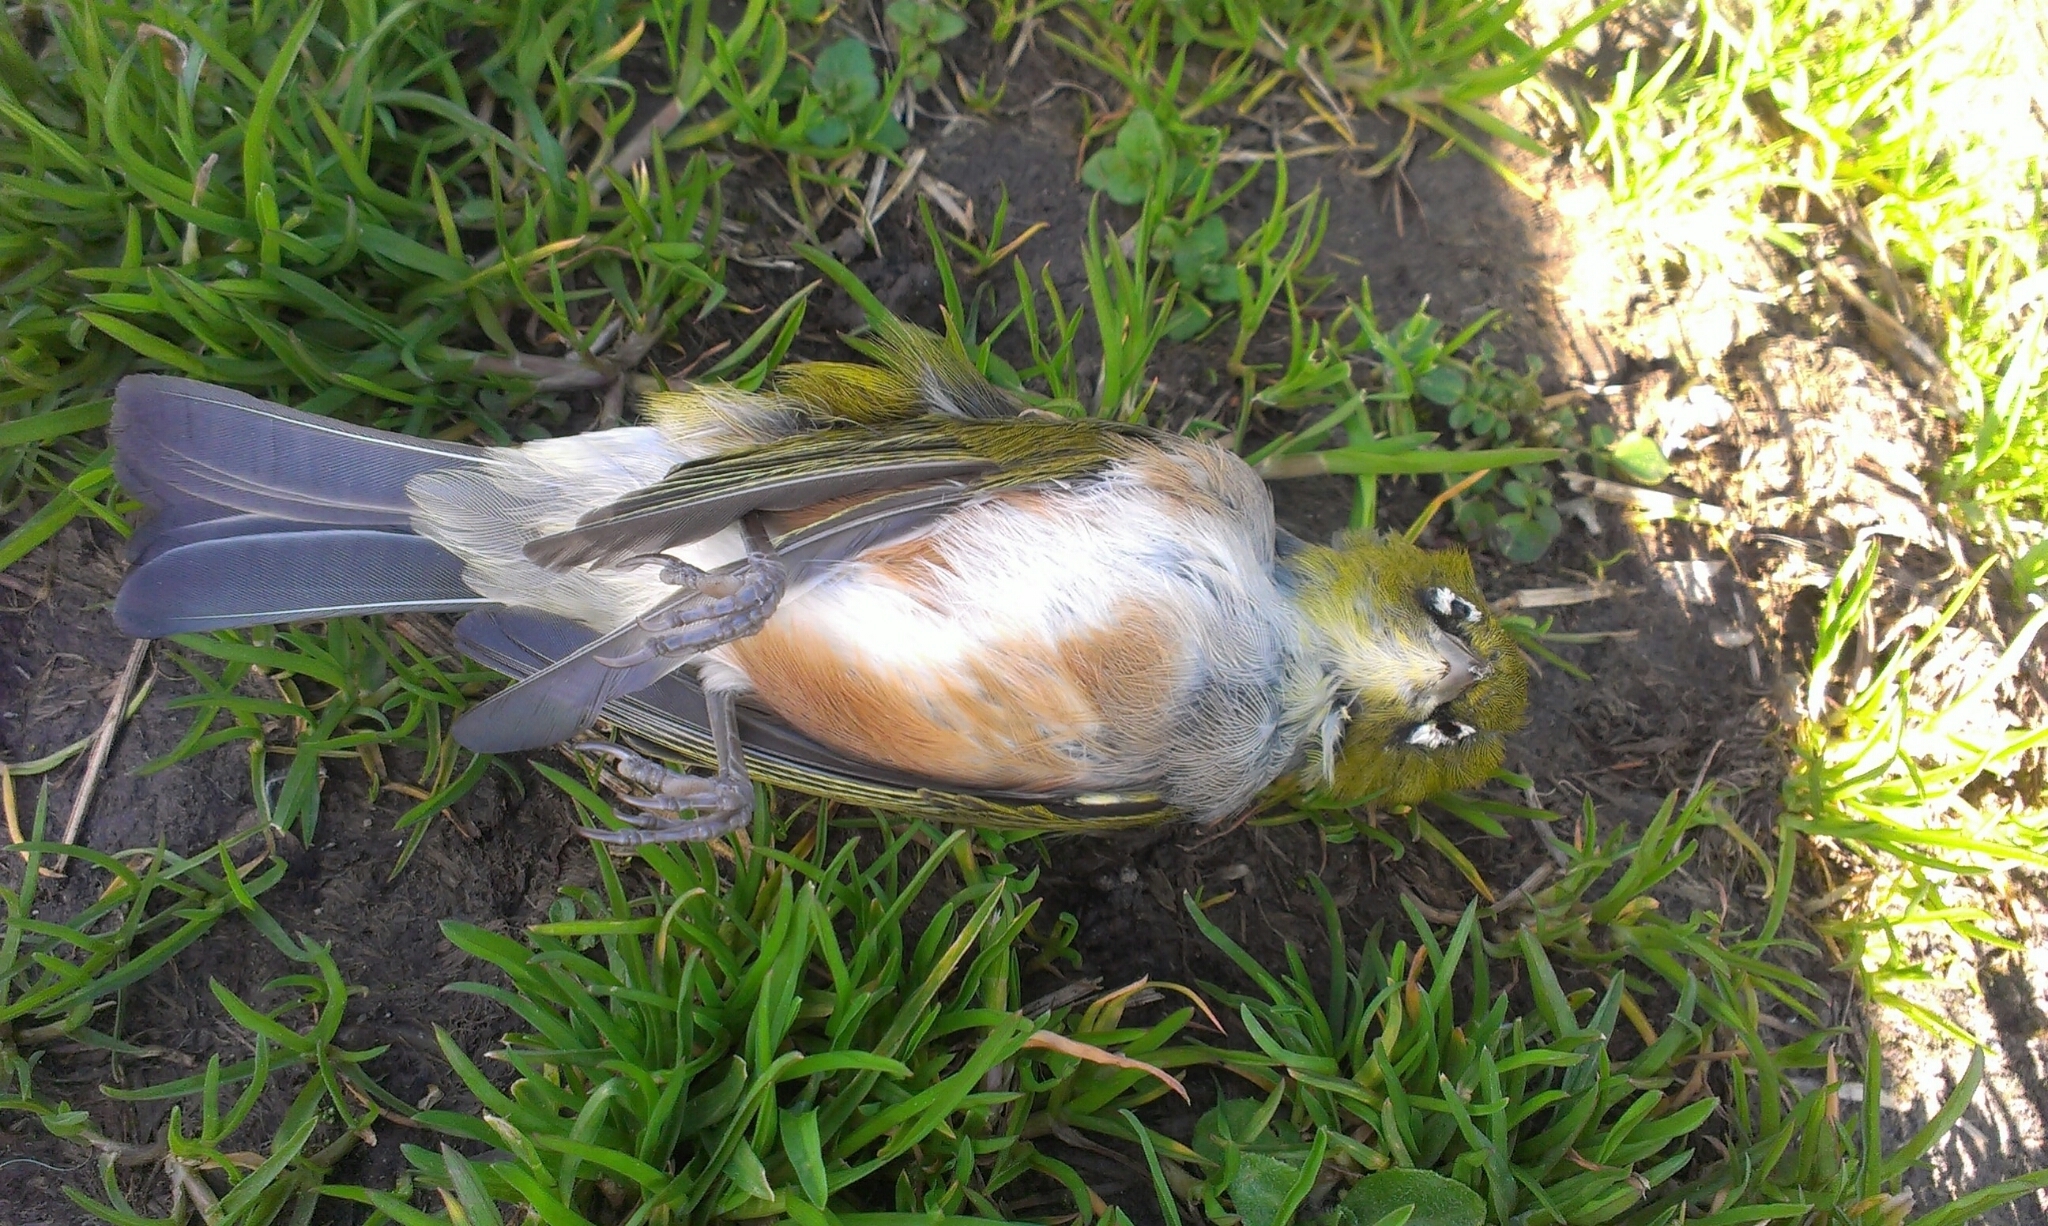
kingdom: Animalia
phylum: Chordata
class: Aves
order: Passeriformes
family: Zosteropidae
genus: Zosterops
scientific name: Zosterops lateralis
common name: Silvereye
